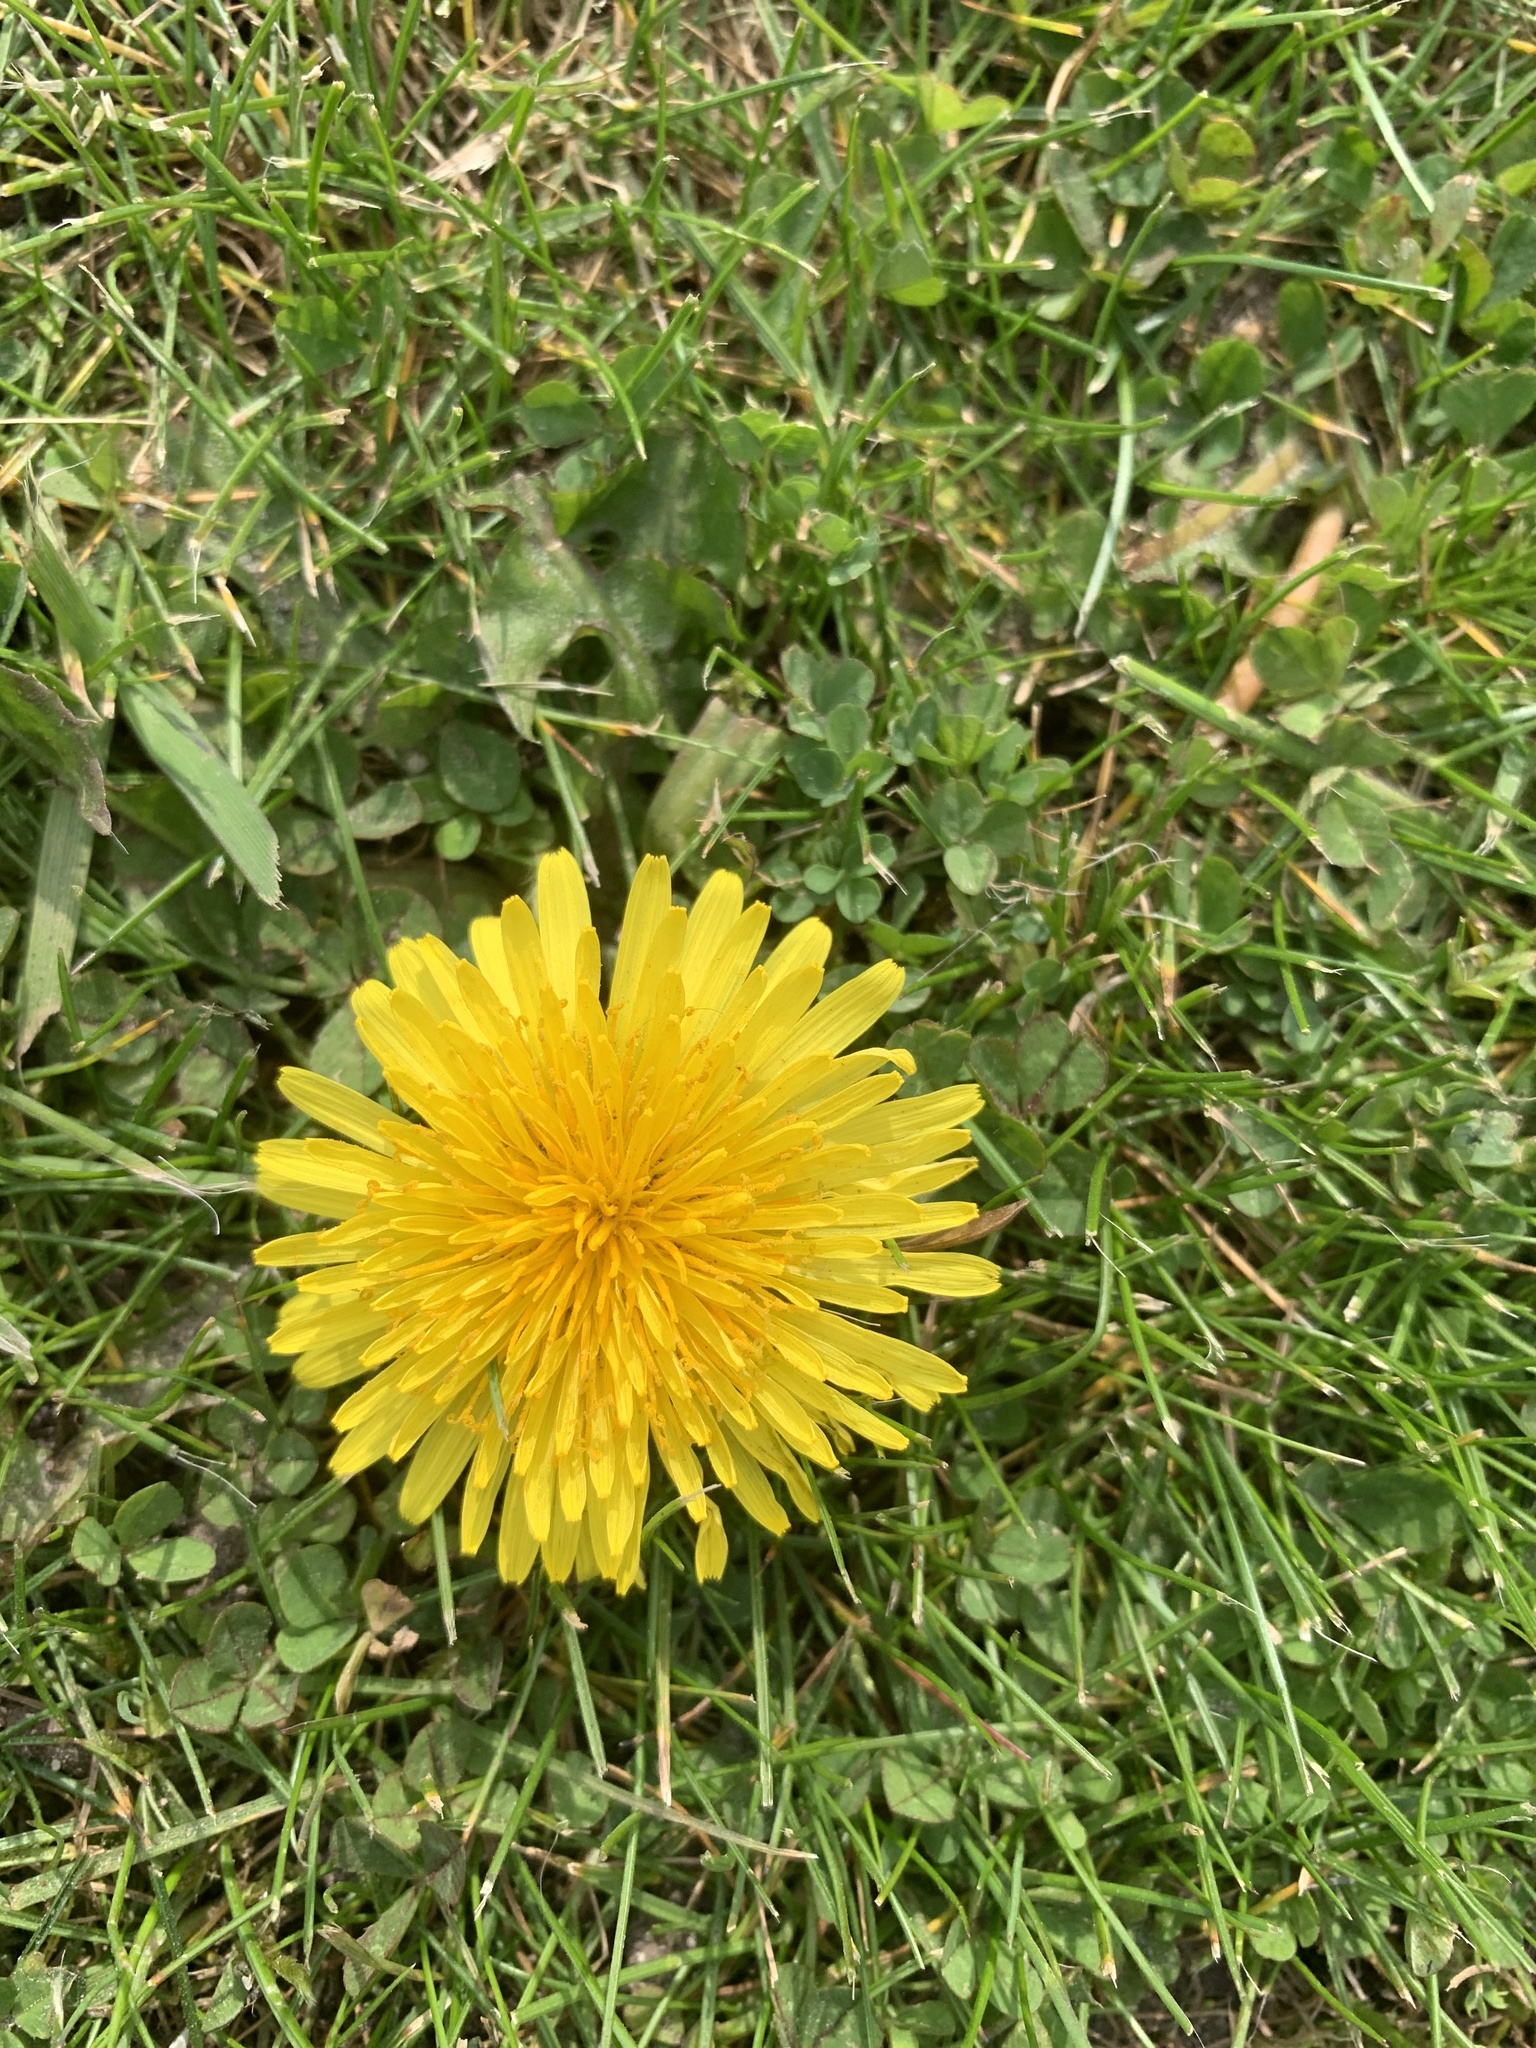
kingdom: Plantae
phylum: Tracheophyta
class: Magnoliopsida
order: Asterales
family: Asteraceae
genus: Taraxacum
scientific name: Taraxacum officinale
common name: Common dandelion
